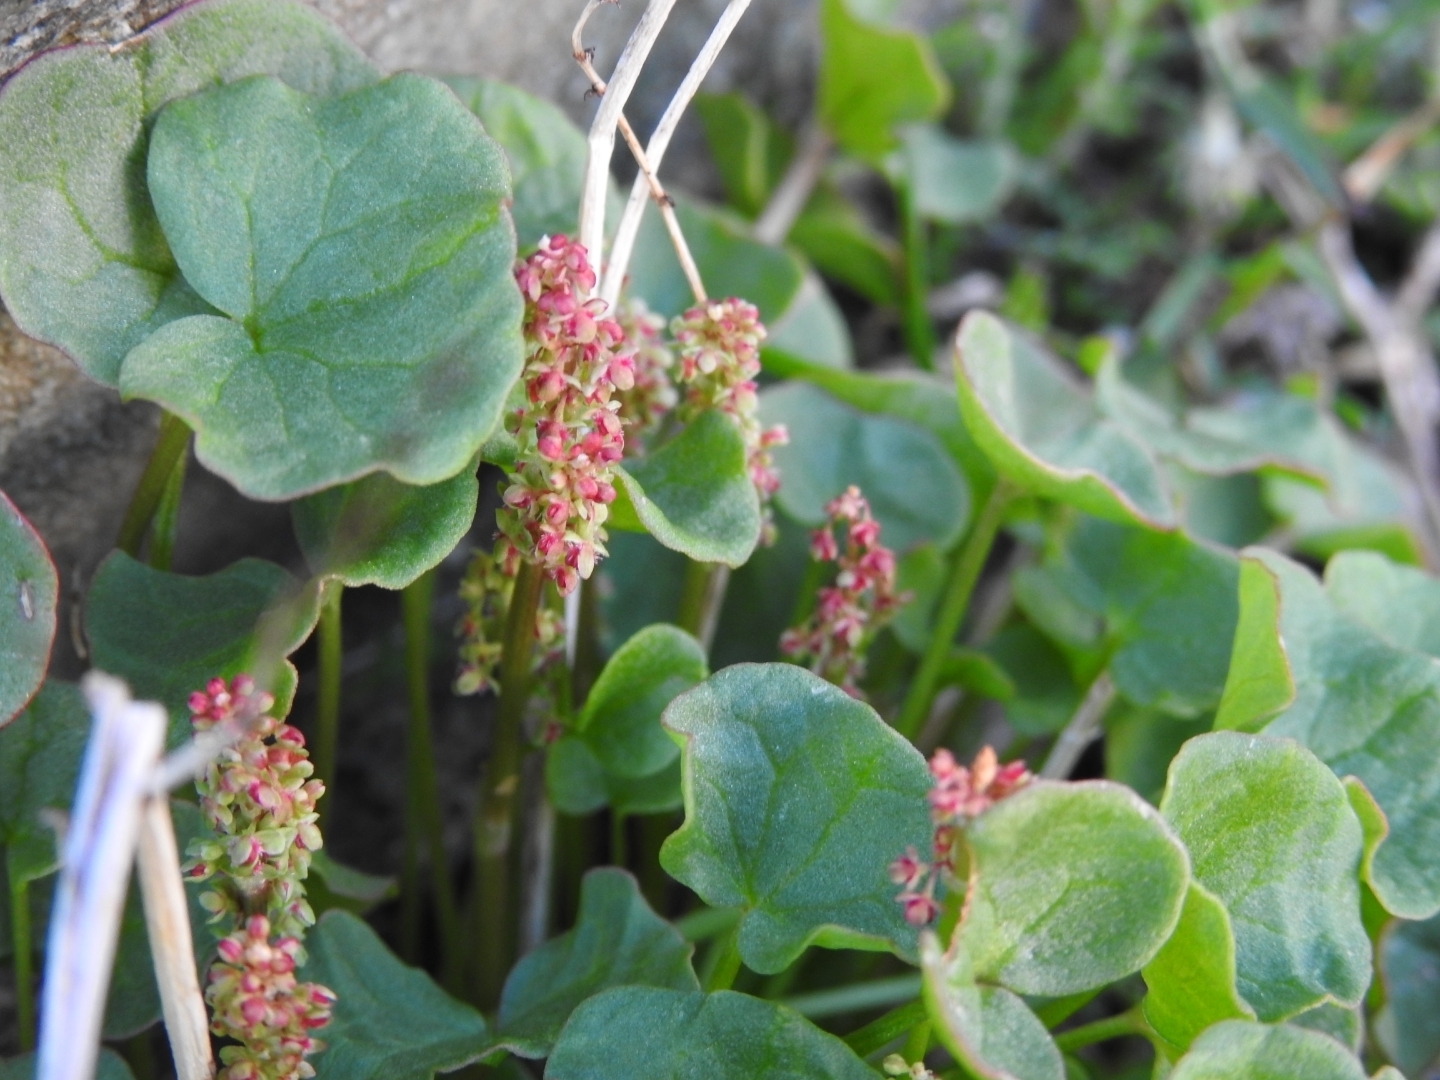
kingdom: Plantae
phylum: Tracheophyta
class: Magnoliopsida
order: Caryophyllales
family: Polygonaceae
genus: Oxyria
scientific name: Oxyria digyna
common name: Alpine mountain-sorrel
